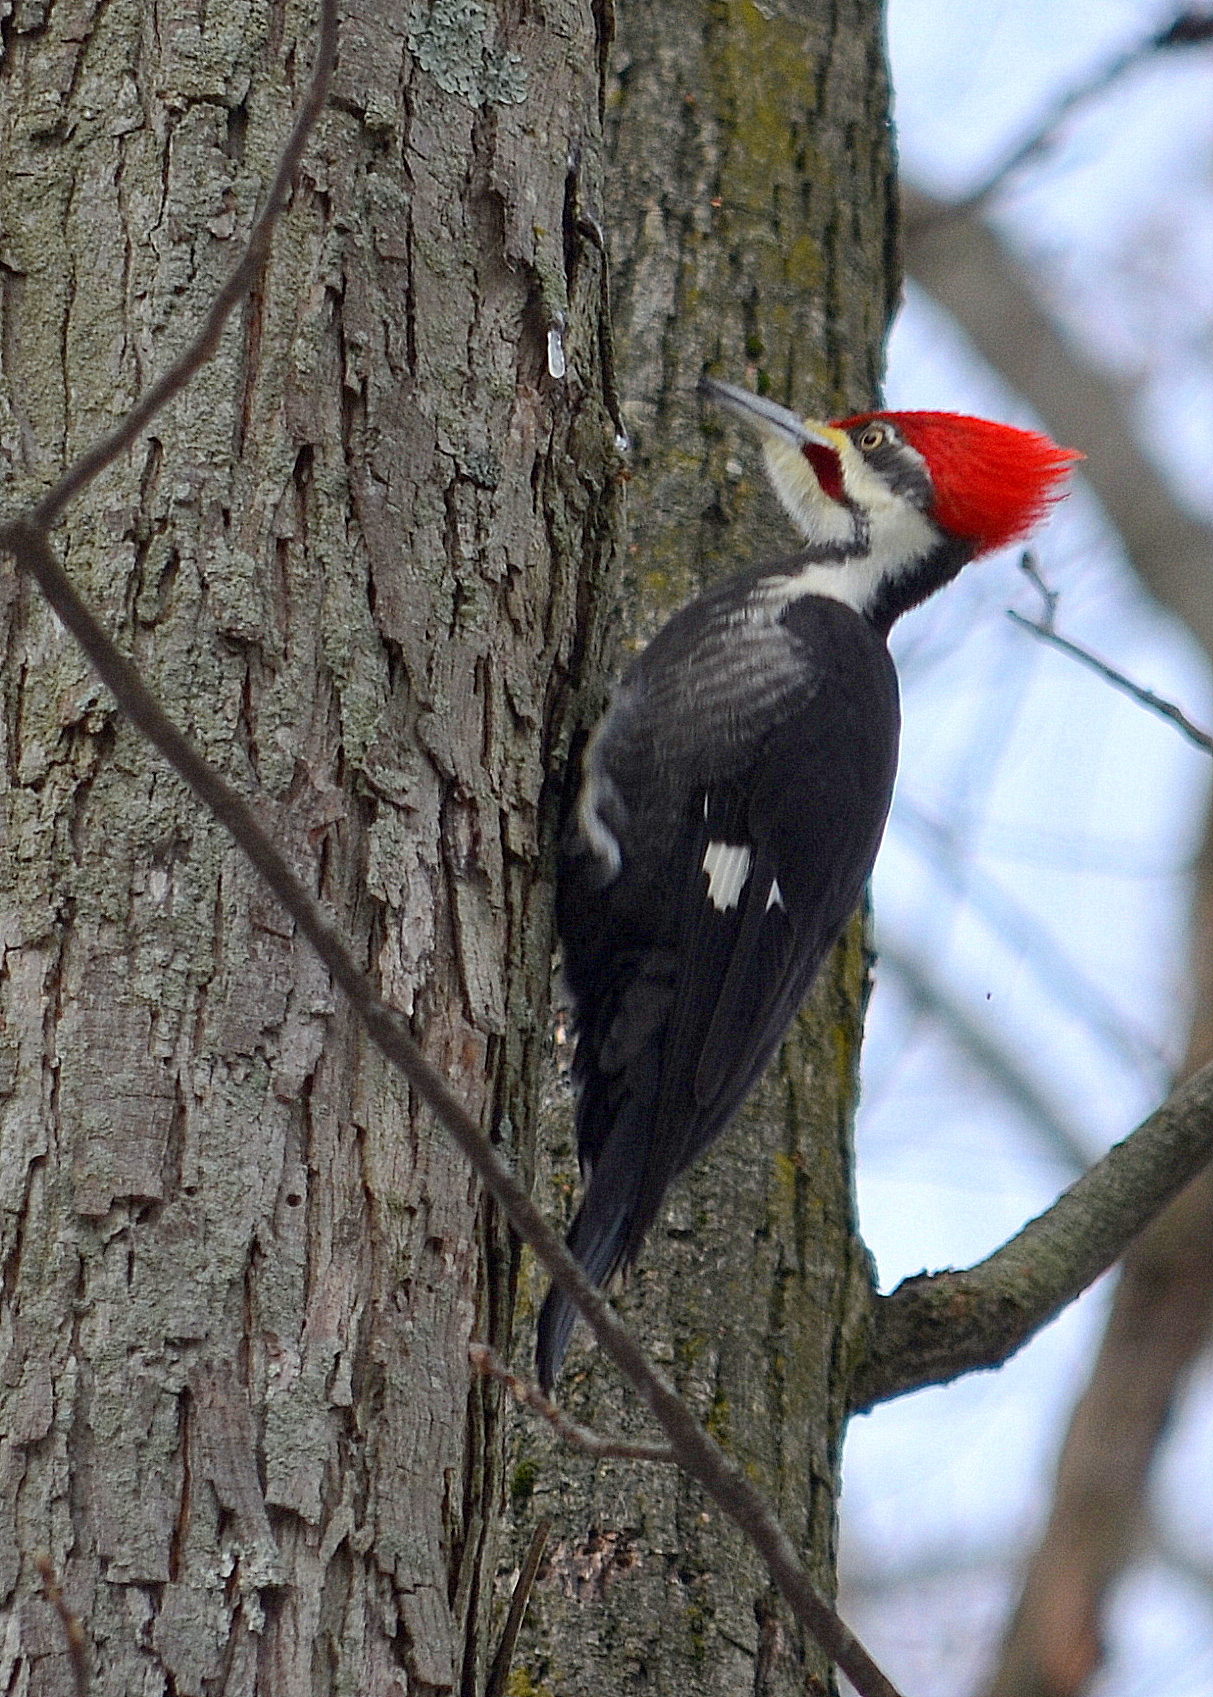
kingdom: Animalia
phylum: Chordata
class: Aves
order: Piciformes
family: Picidae
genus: Dryocopus
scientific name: Dryocopus pileatus
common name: Pileated woodpecker
